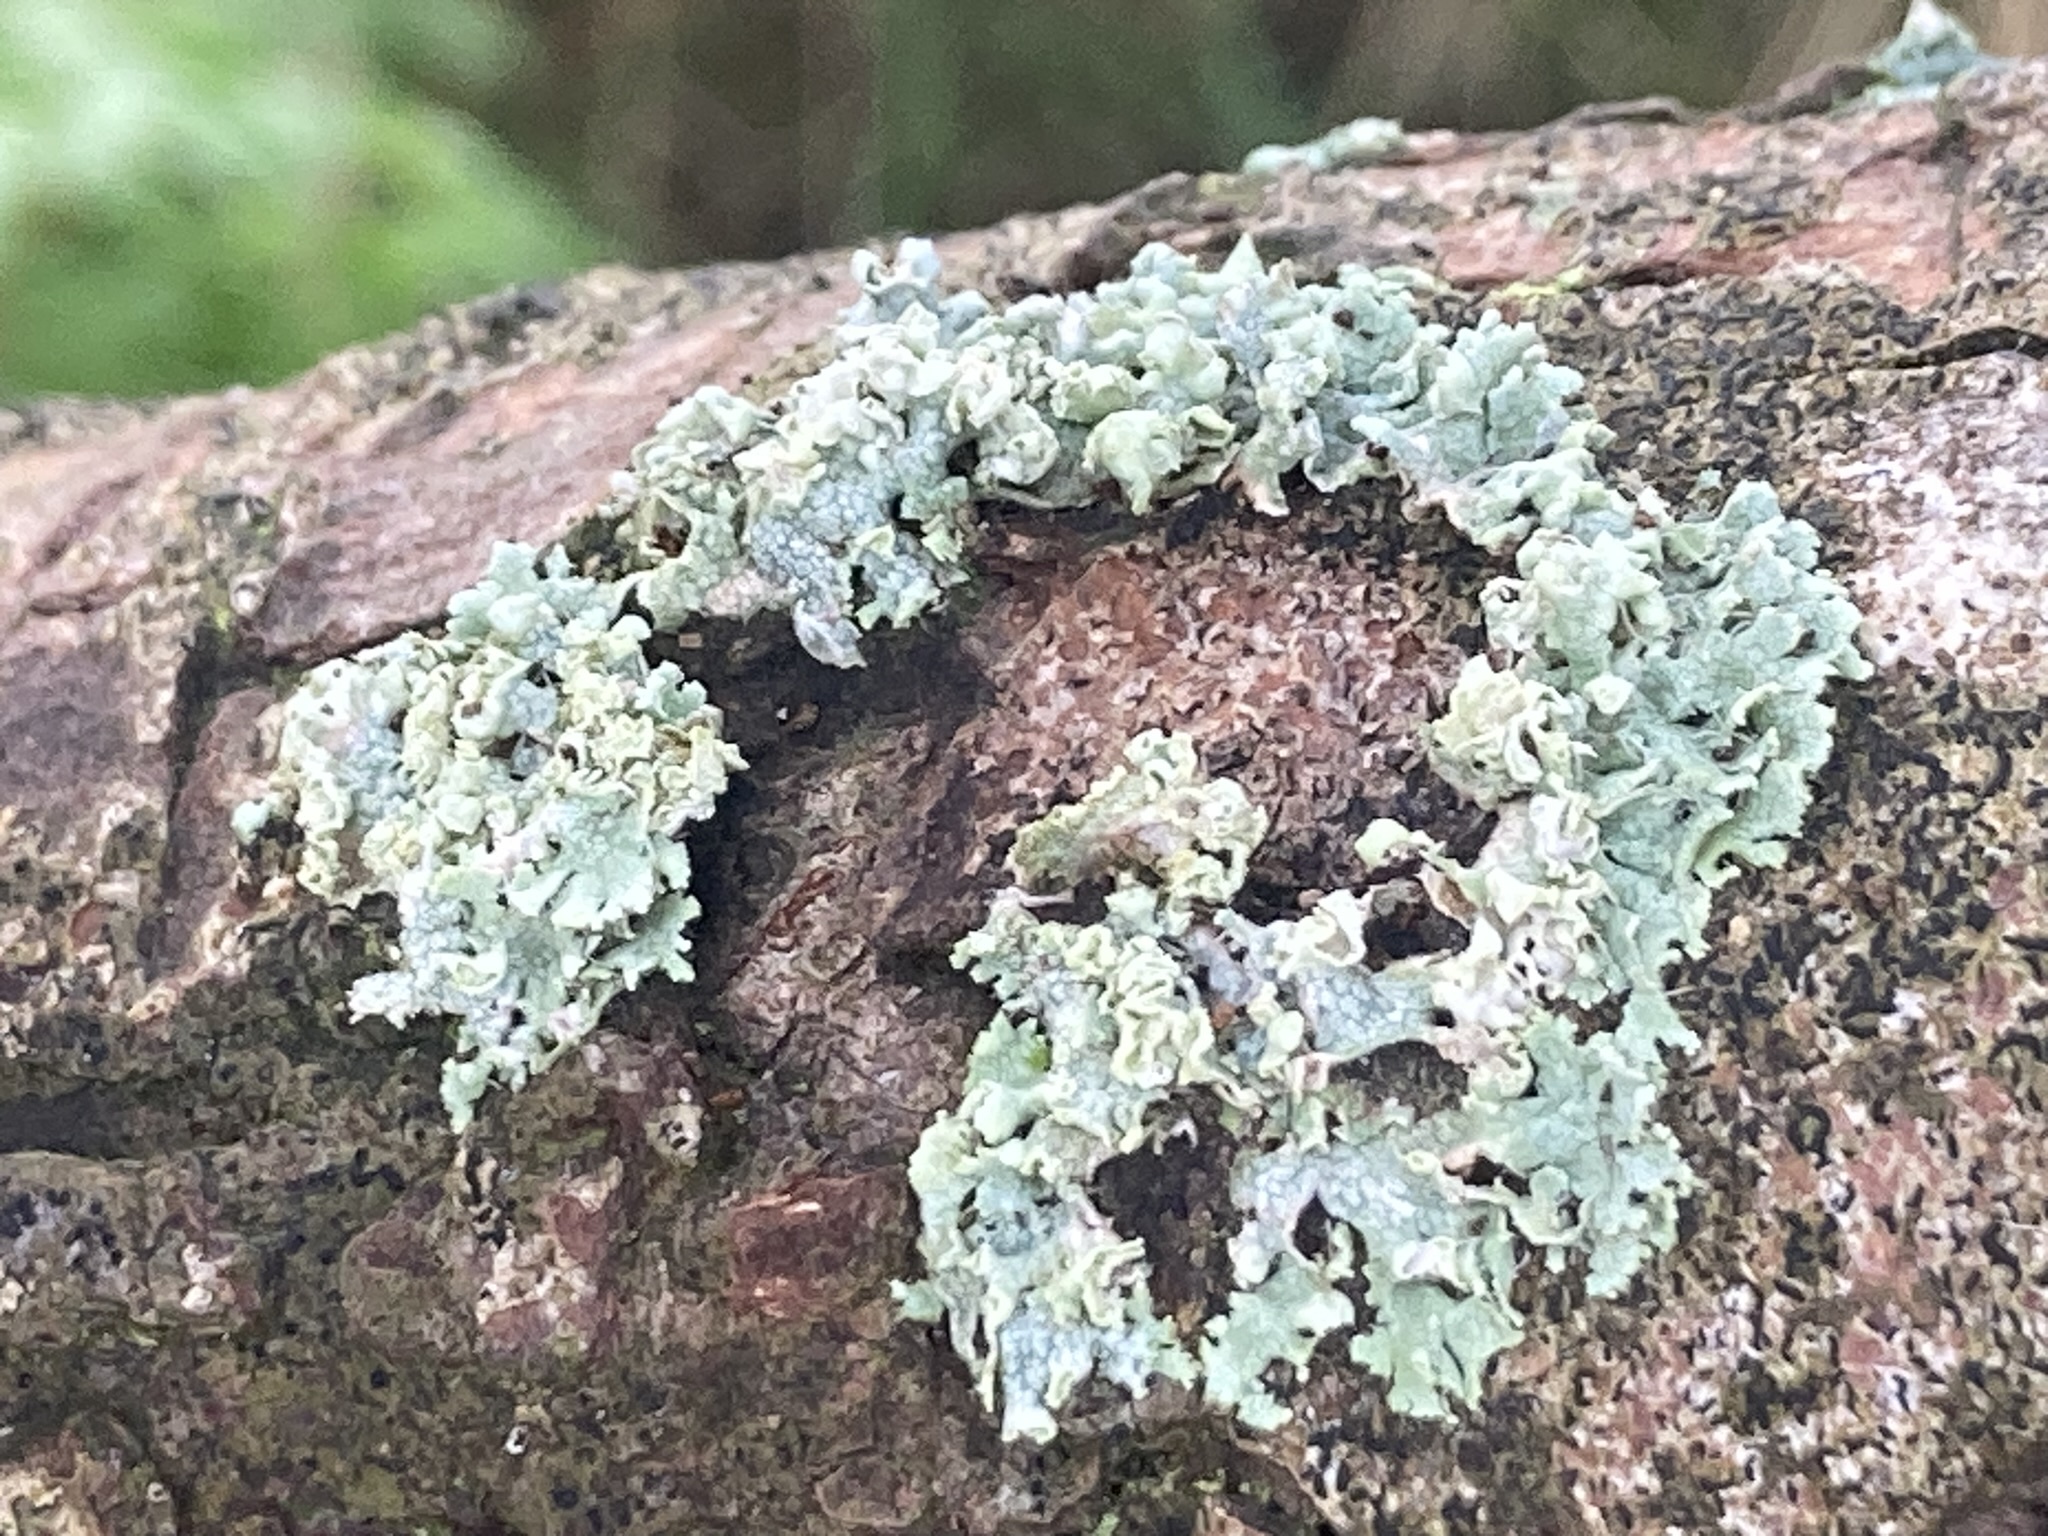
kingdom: Fungi
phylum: Ascomycota
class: Lecanoromycetes
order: Caliciales
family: Physciaceae
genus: Physcia
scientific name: Physcia adscendens
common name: Hooded rosette lichen
